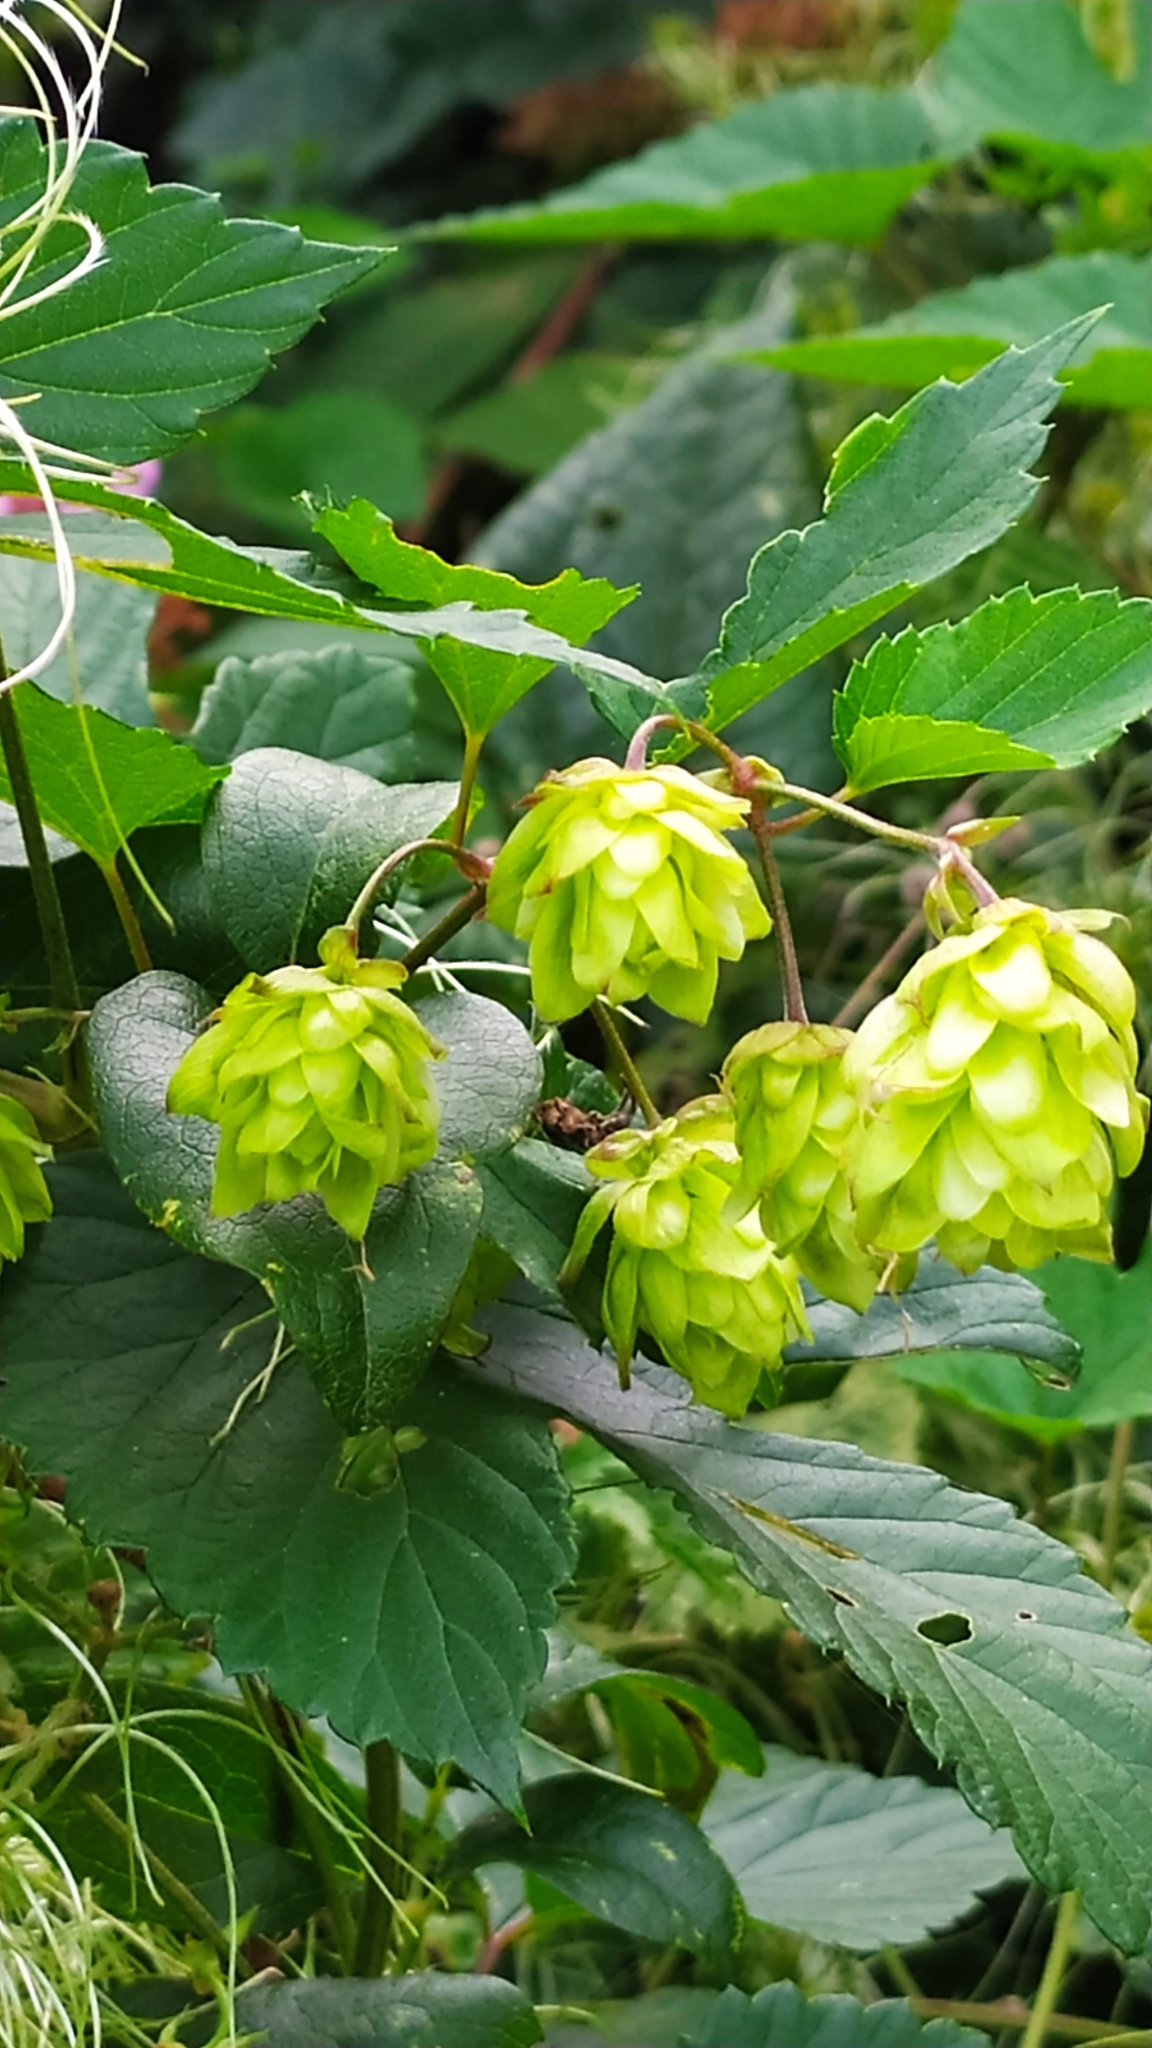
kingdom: Plantae
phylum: Tracheophyta
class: Magnoliopsida
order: Rosales
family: Cannabaceae
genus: Humulus
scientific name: Humulus lupulus
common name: Hop
